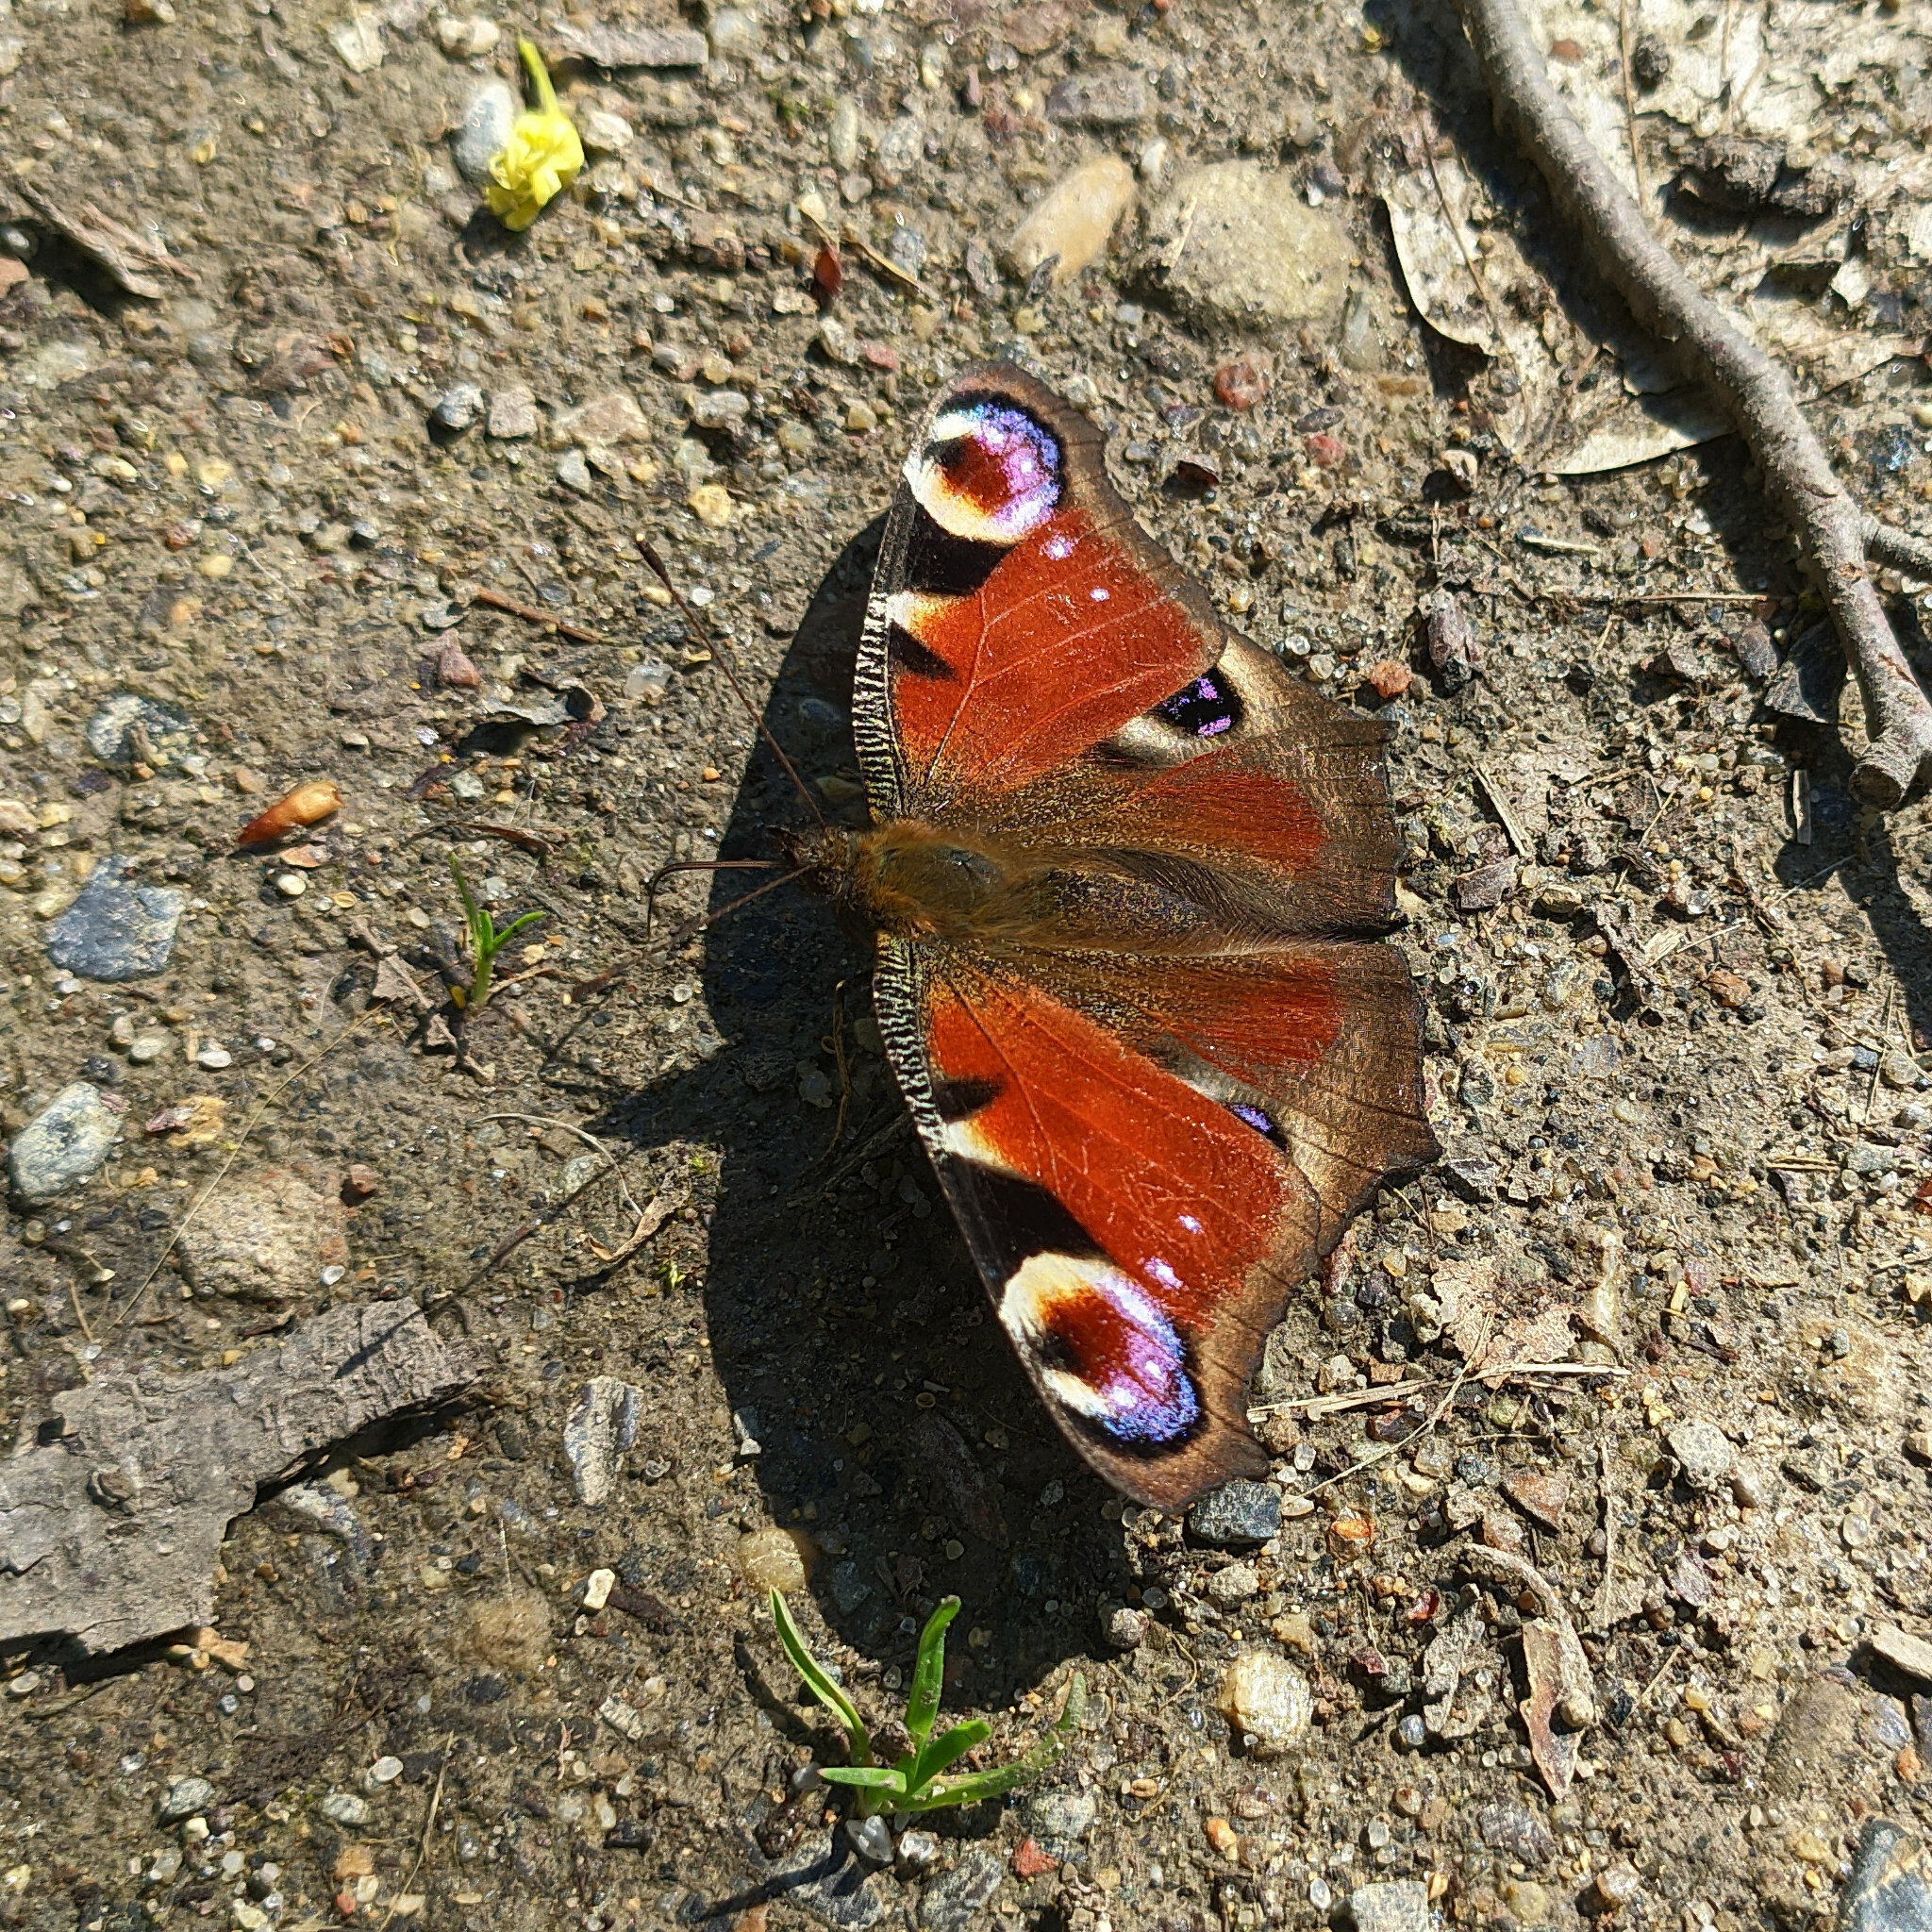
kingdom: Animalia
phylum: Arthropoda
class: Insecta
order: Lepidoptera
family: Nymphalidae
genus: Aglais
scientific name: Aglais io
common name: Peacock
